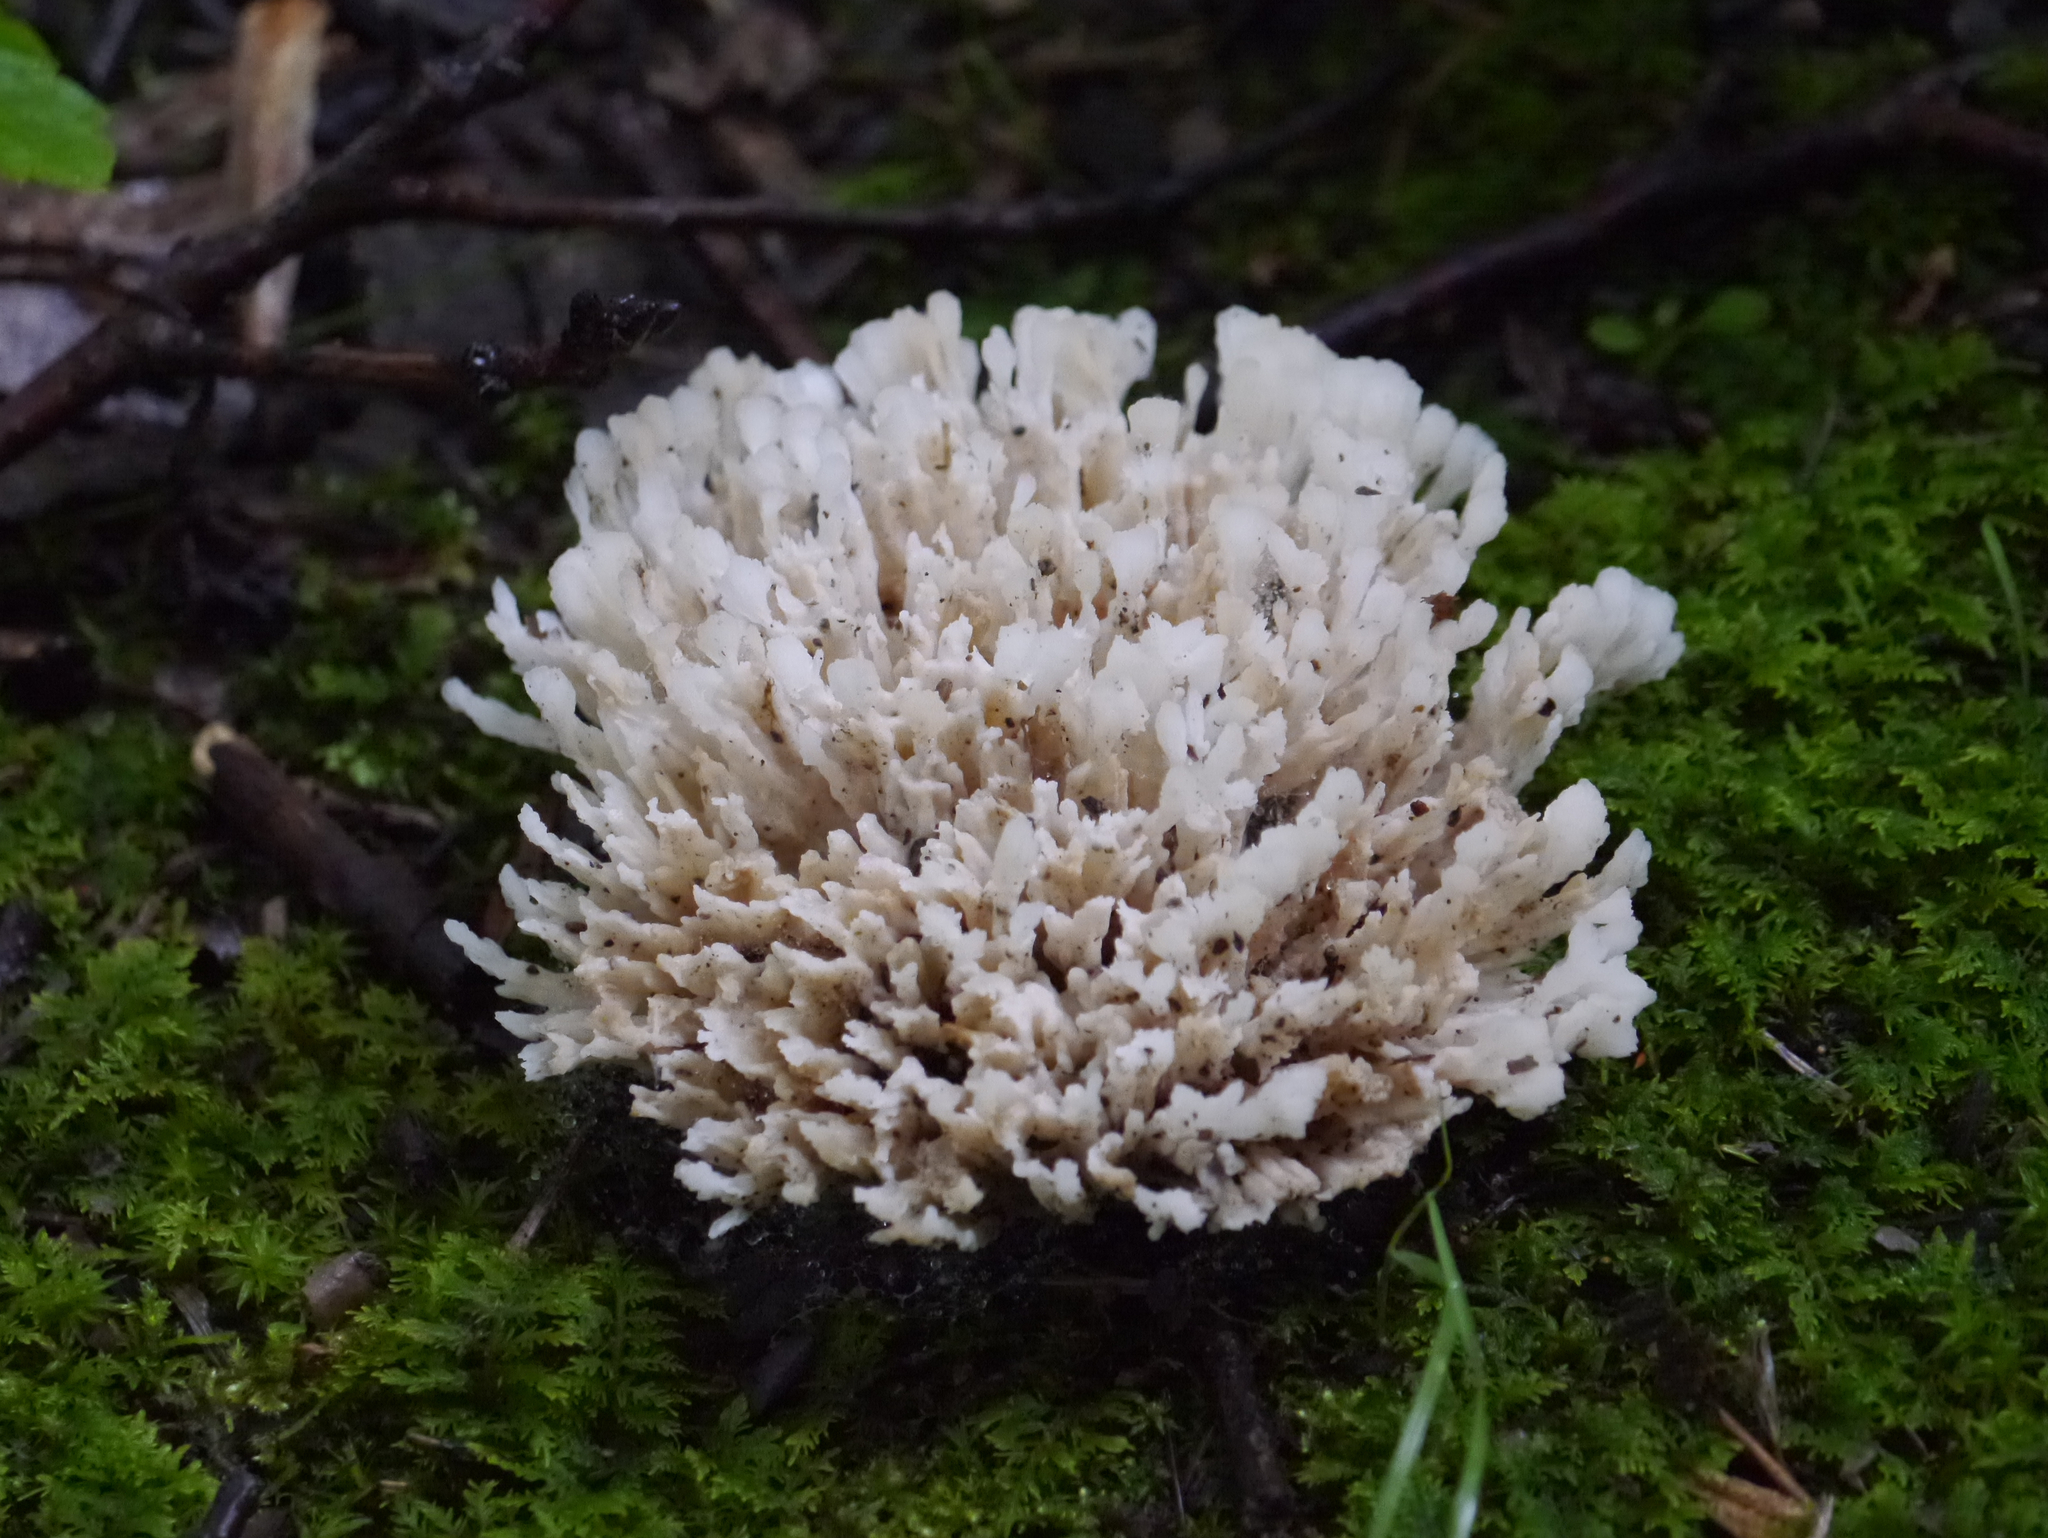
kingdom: Fungi
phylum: Basidiomycota
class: Agaricomycetes
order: Sebacinales
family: Sebacinaceae
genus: Sebacina
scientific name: Sebacina schweinitzii
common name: Jellied false coral fungus
